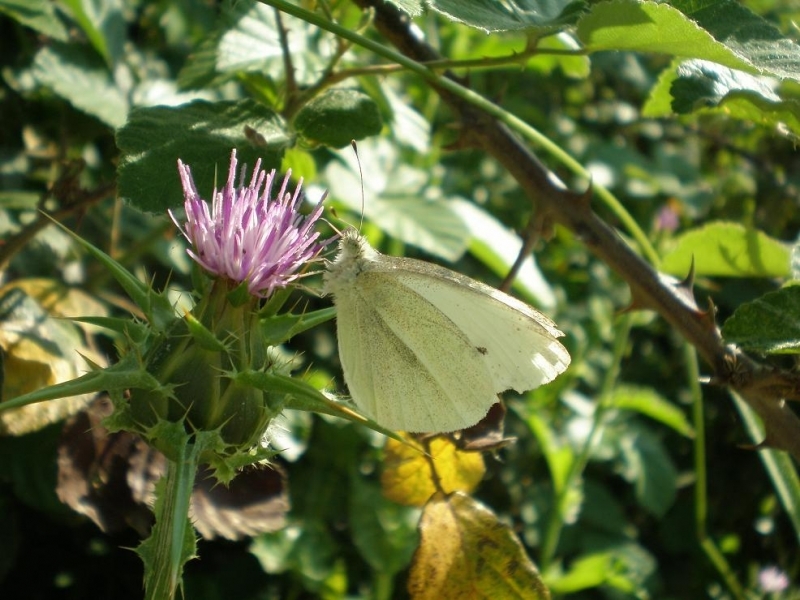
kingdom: Animalia
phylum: Arthropoda
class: Insecta
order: Lepidoptera
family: Pieridae
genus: Pieris
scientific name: Pieris rapae
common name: Small white
